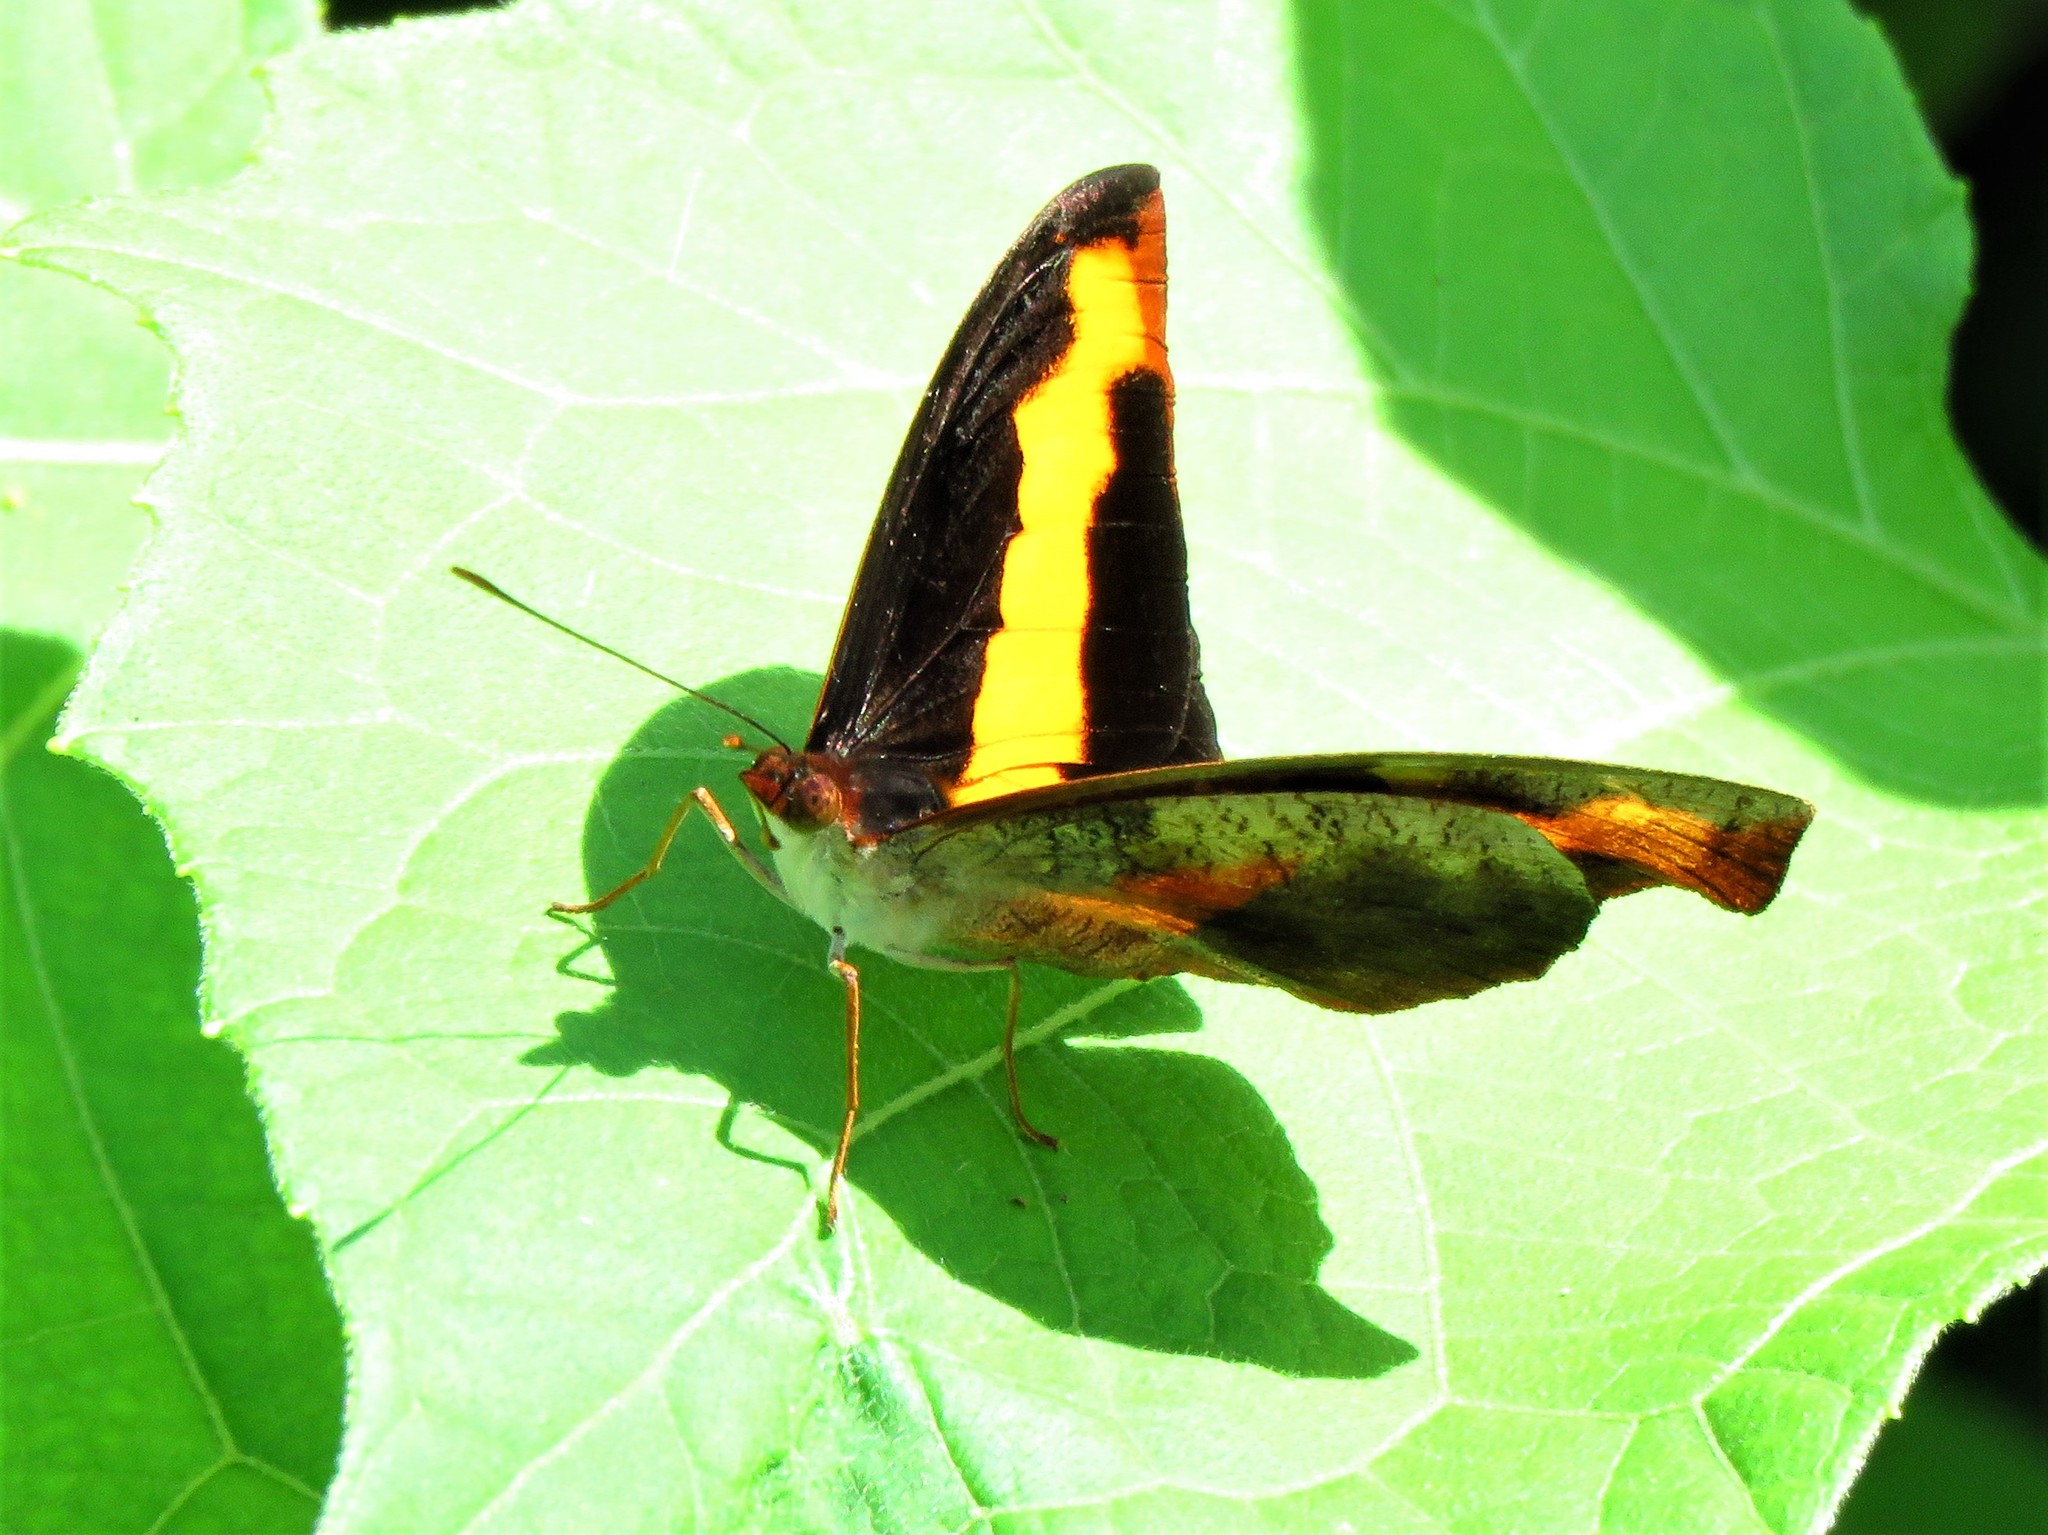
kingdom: Animalia
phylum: Arthropoda
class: Insecta
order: Lepidoptera
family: Nymphalidae
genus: Catonephele
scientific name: Catonephele mexicana
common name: Guatemalan catone
